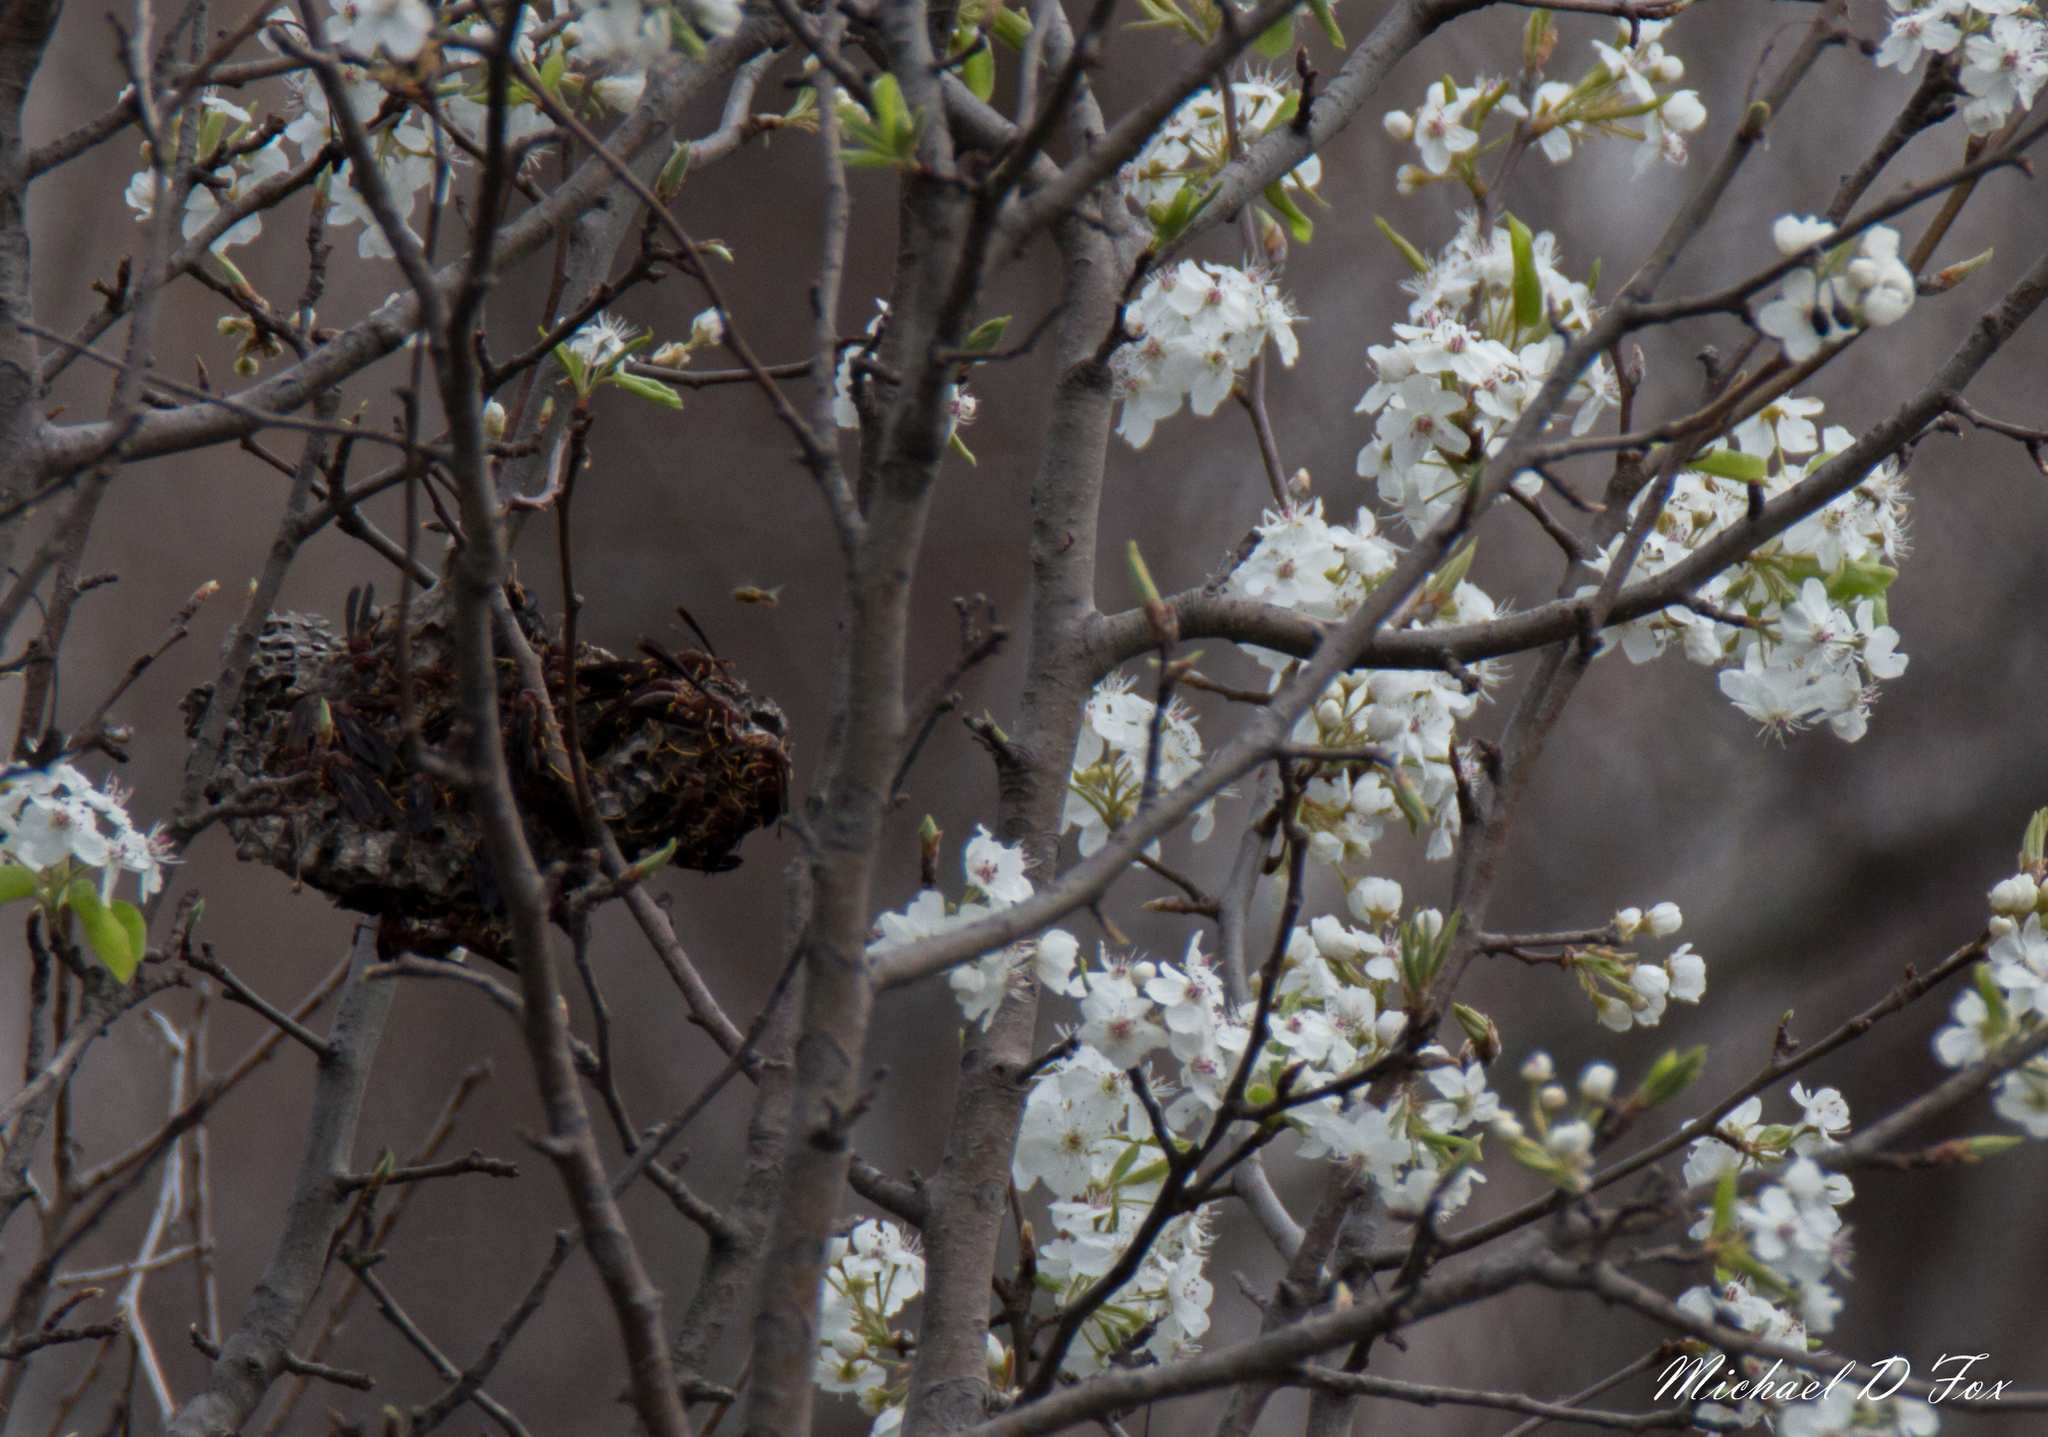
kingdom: Animalia
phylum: Arthropoda
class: Insecta
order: Hymenoptera
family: Eumenidae
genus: Polistes
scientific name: Polistes annularis
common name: Ringed paper wasp
